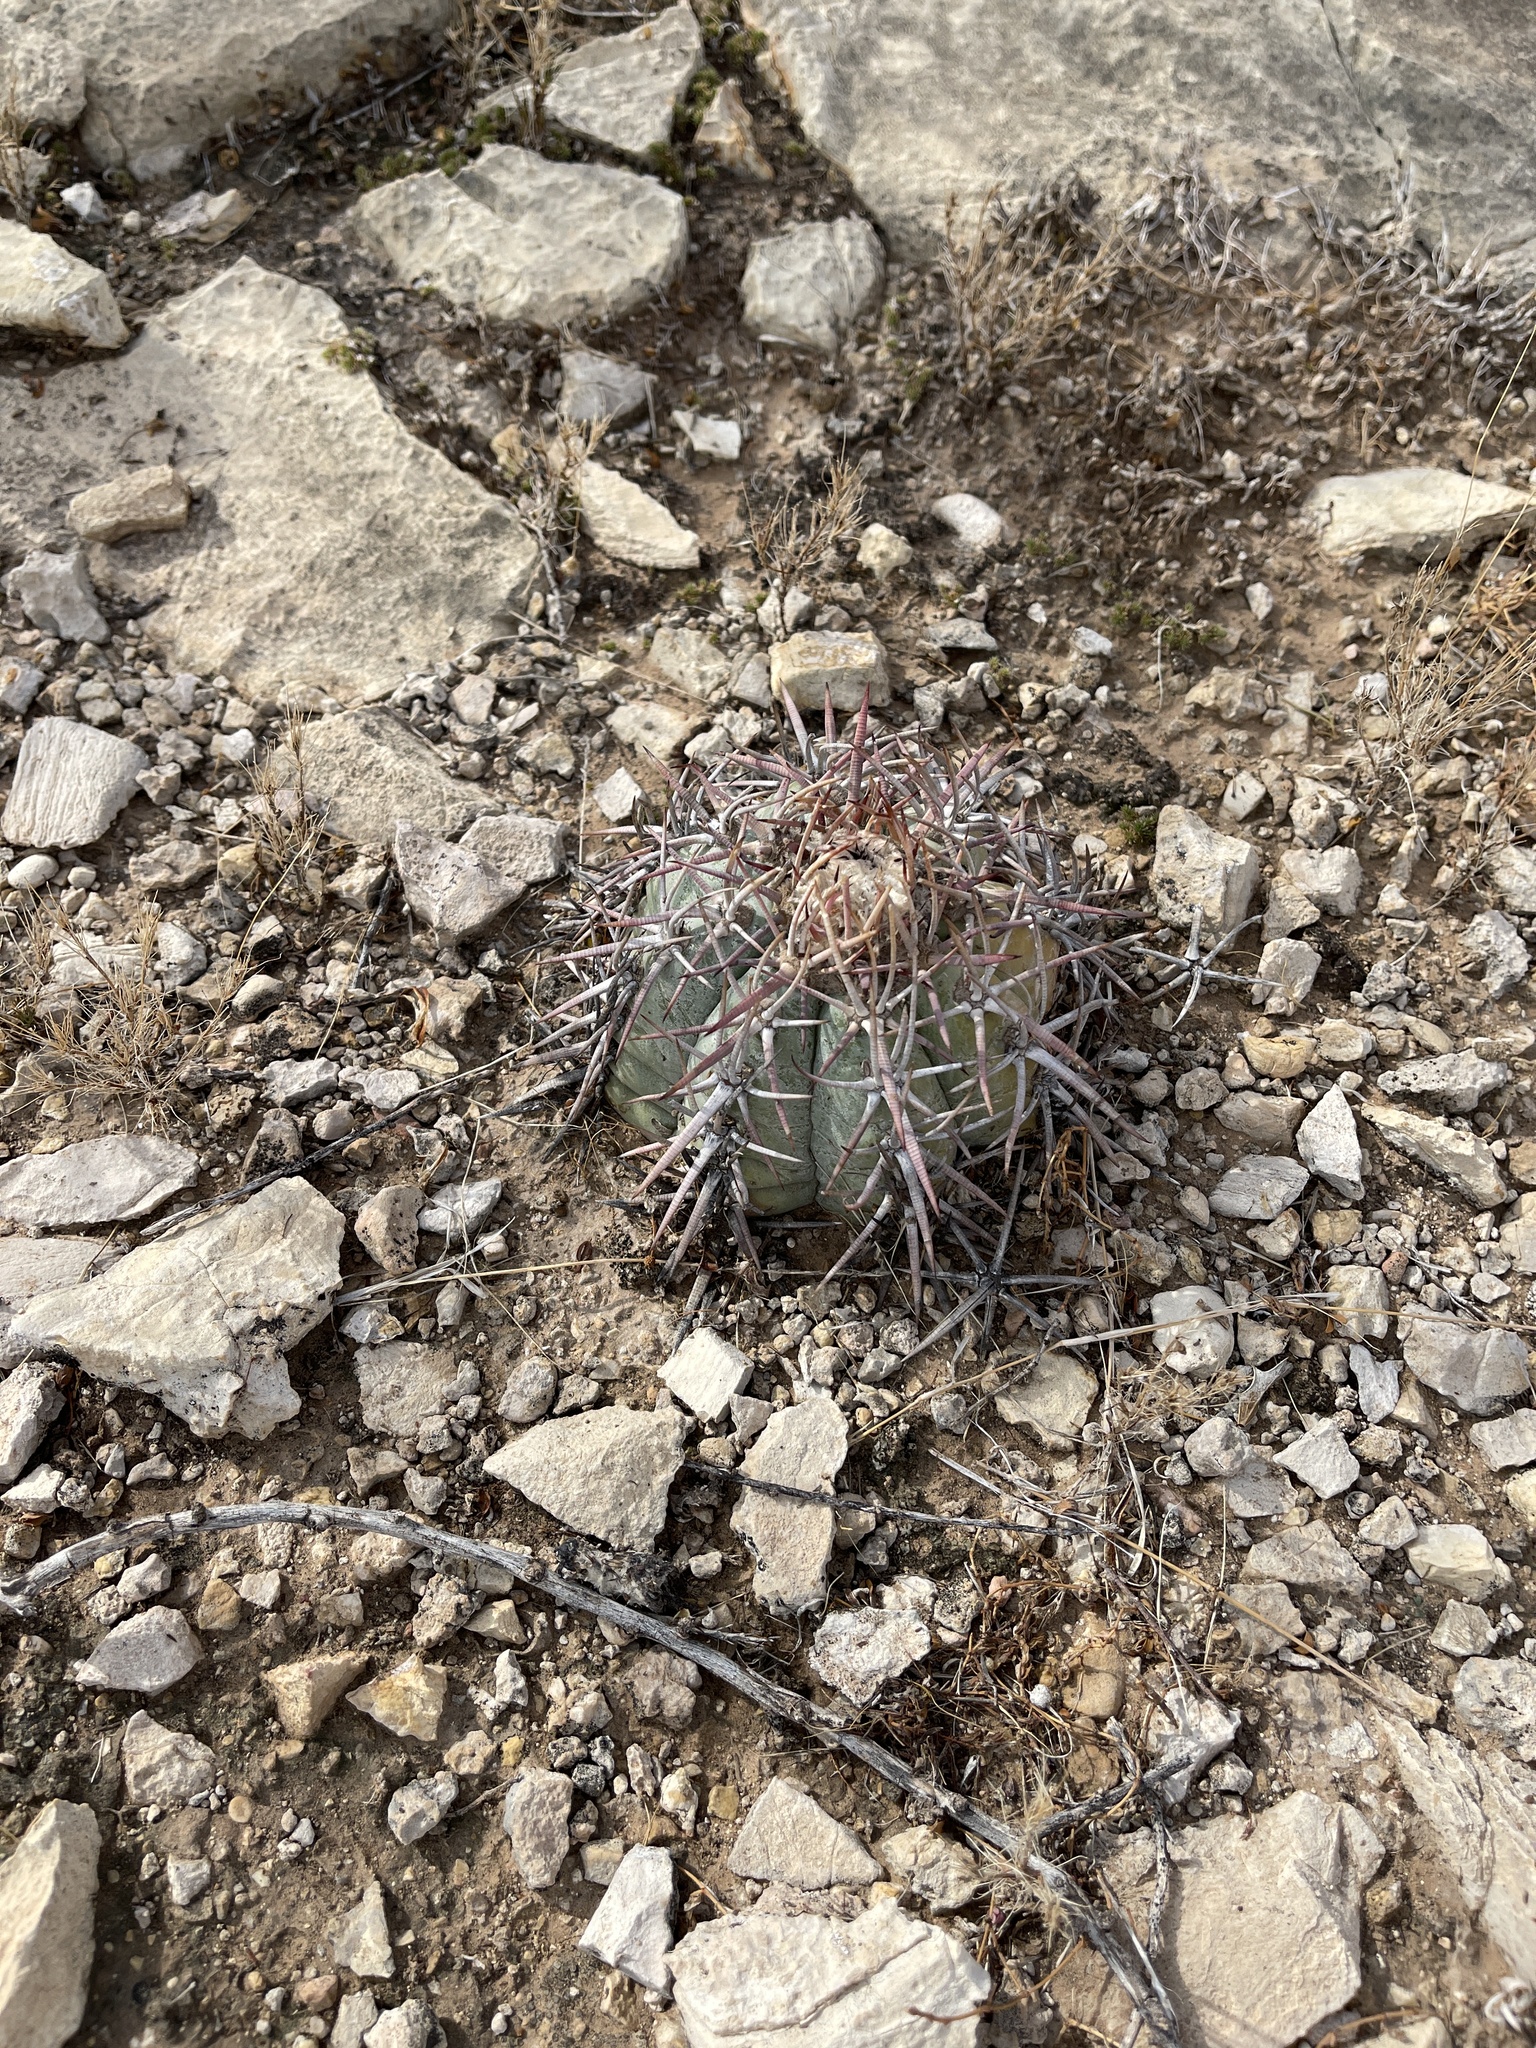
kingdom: Plantae
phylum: Tracheophyta
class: Magnoliopsida
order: Caryophyllales
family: Cactaceae
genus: Echinocactus
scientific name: Echinocactus horizonthalonius
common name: Devilshead
